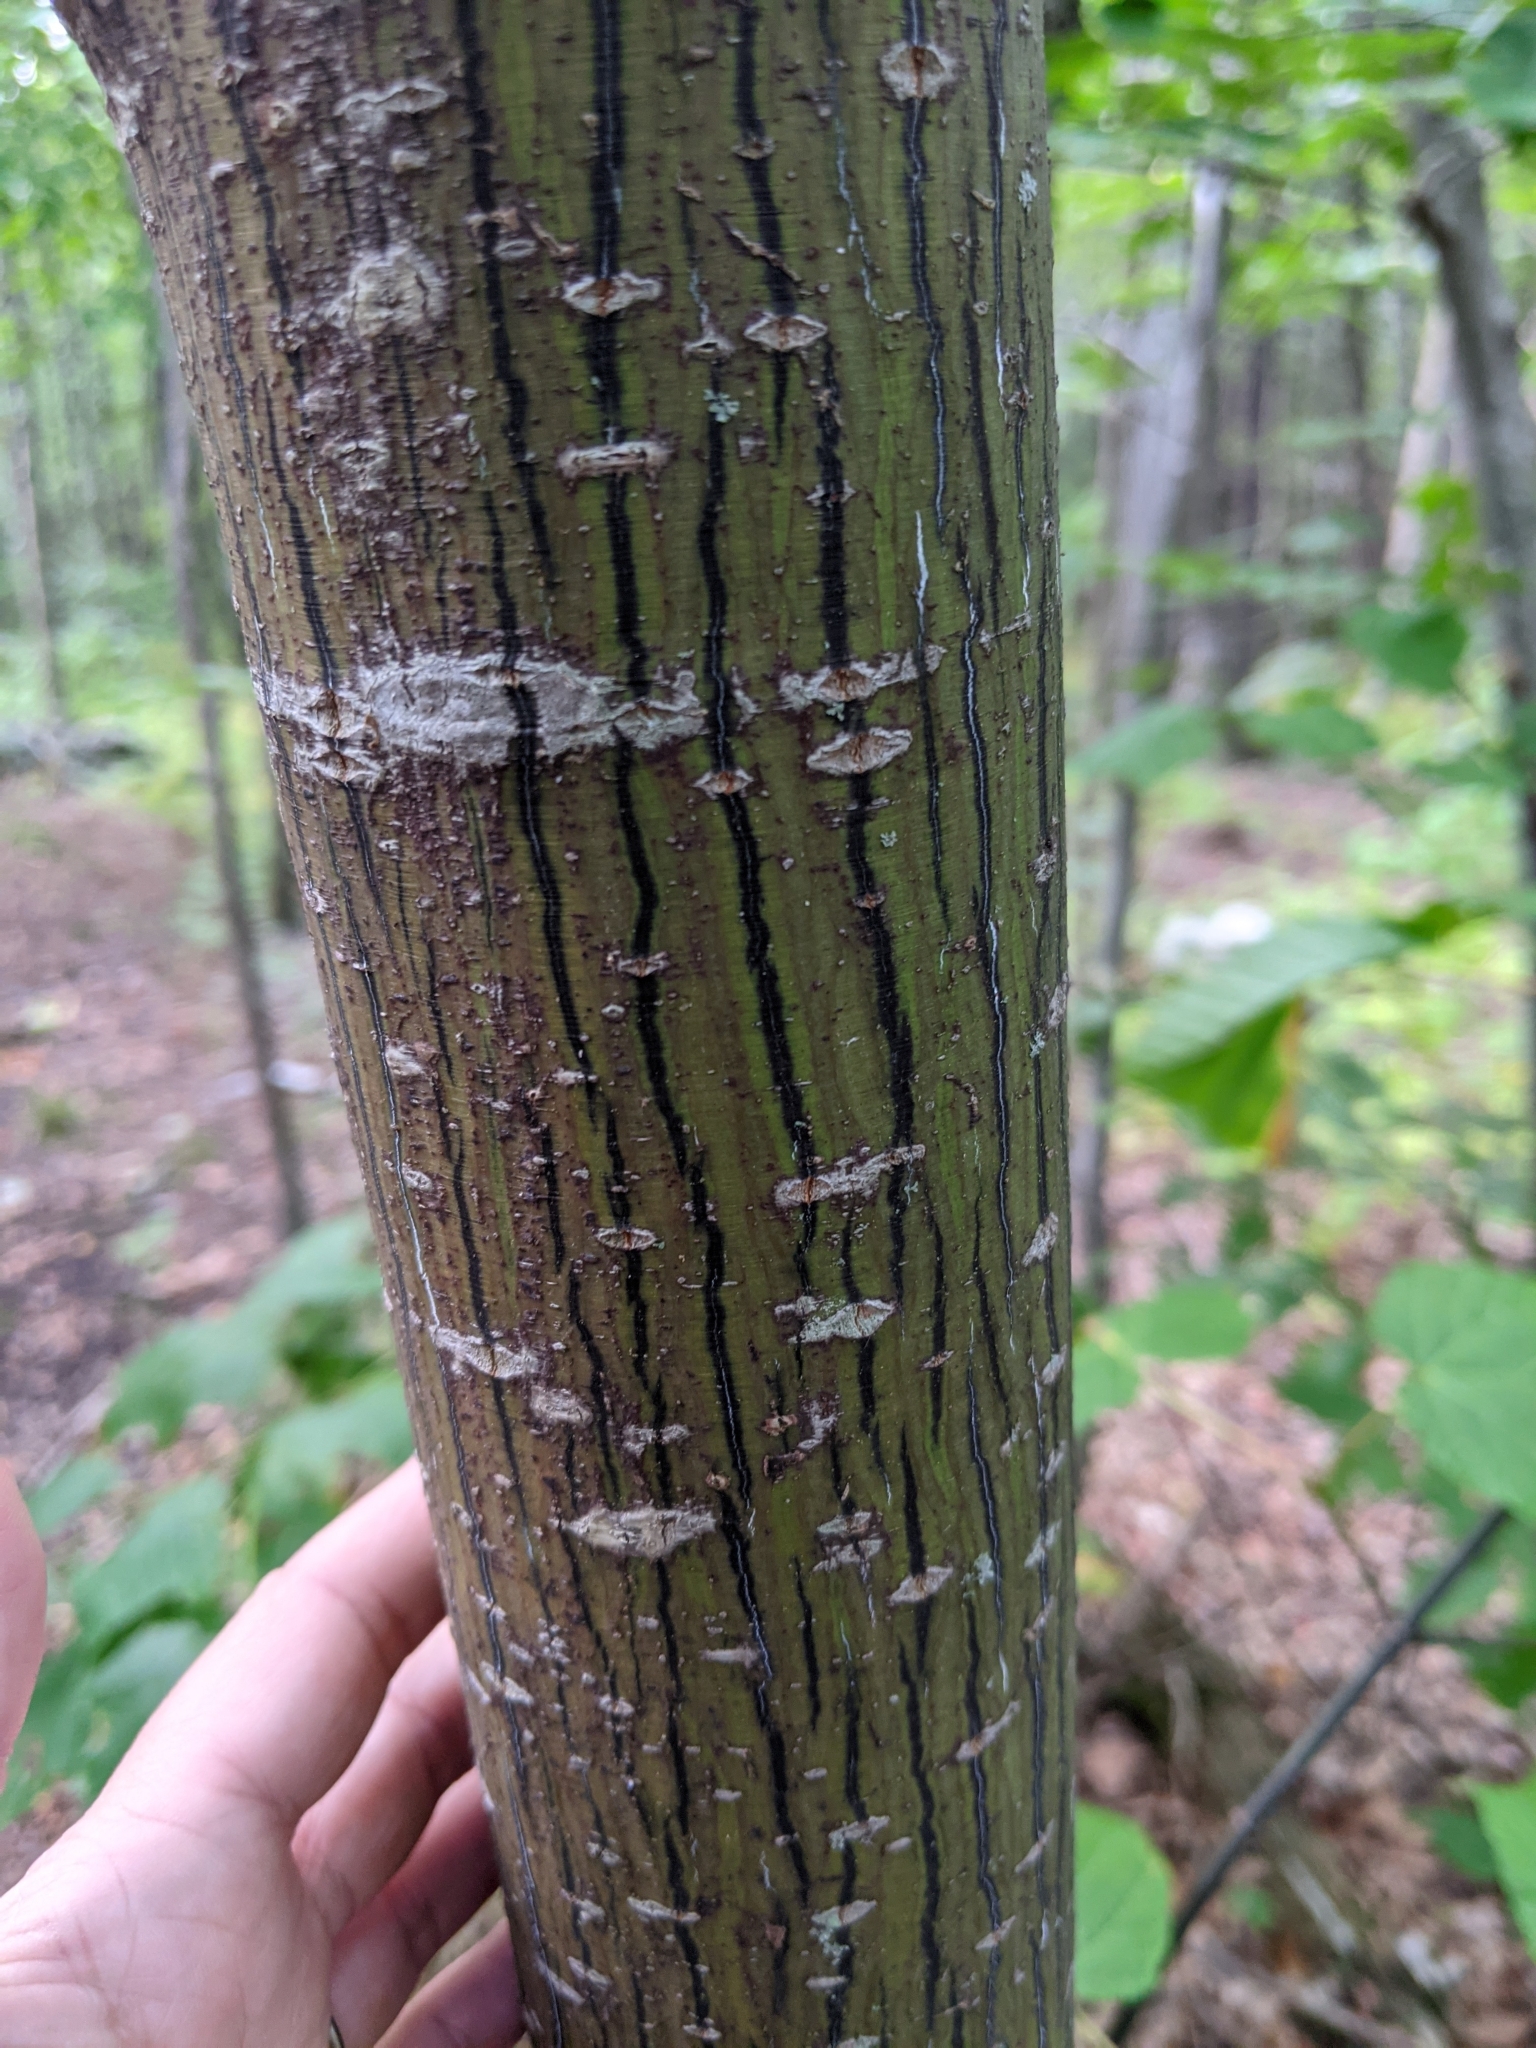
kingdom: Plantae
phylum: Tracheophyta
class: Magnoliopsida
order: Sapindales
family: Sapindaceae
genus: Acer
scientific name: Acer pensylvanicum
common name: Moosewood
